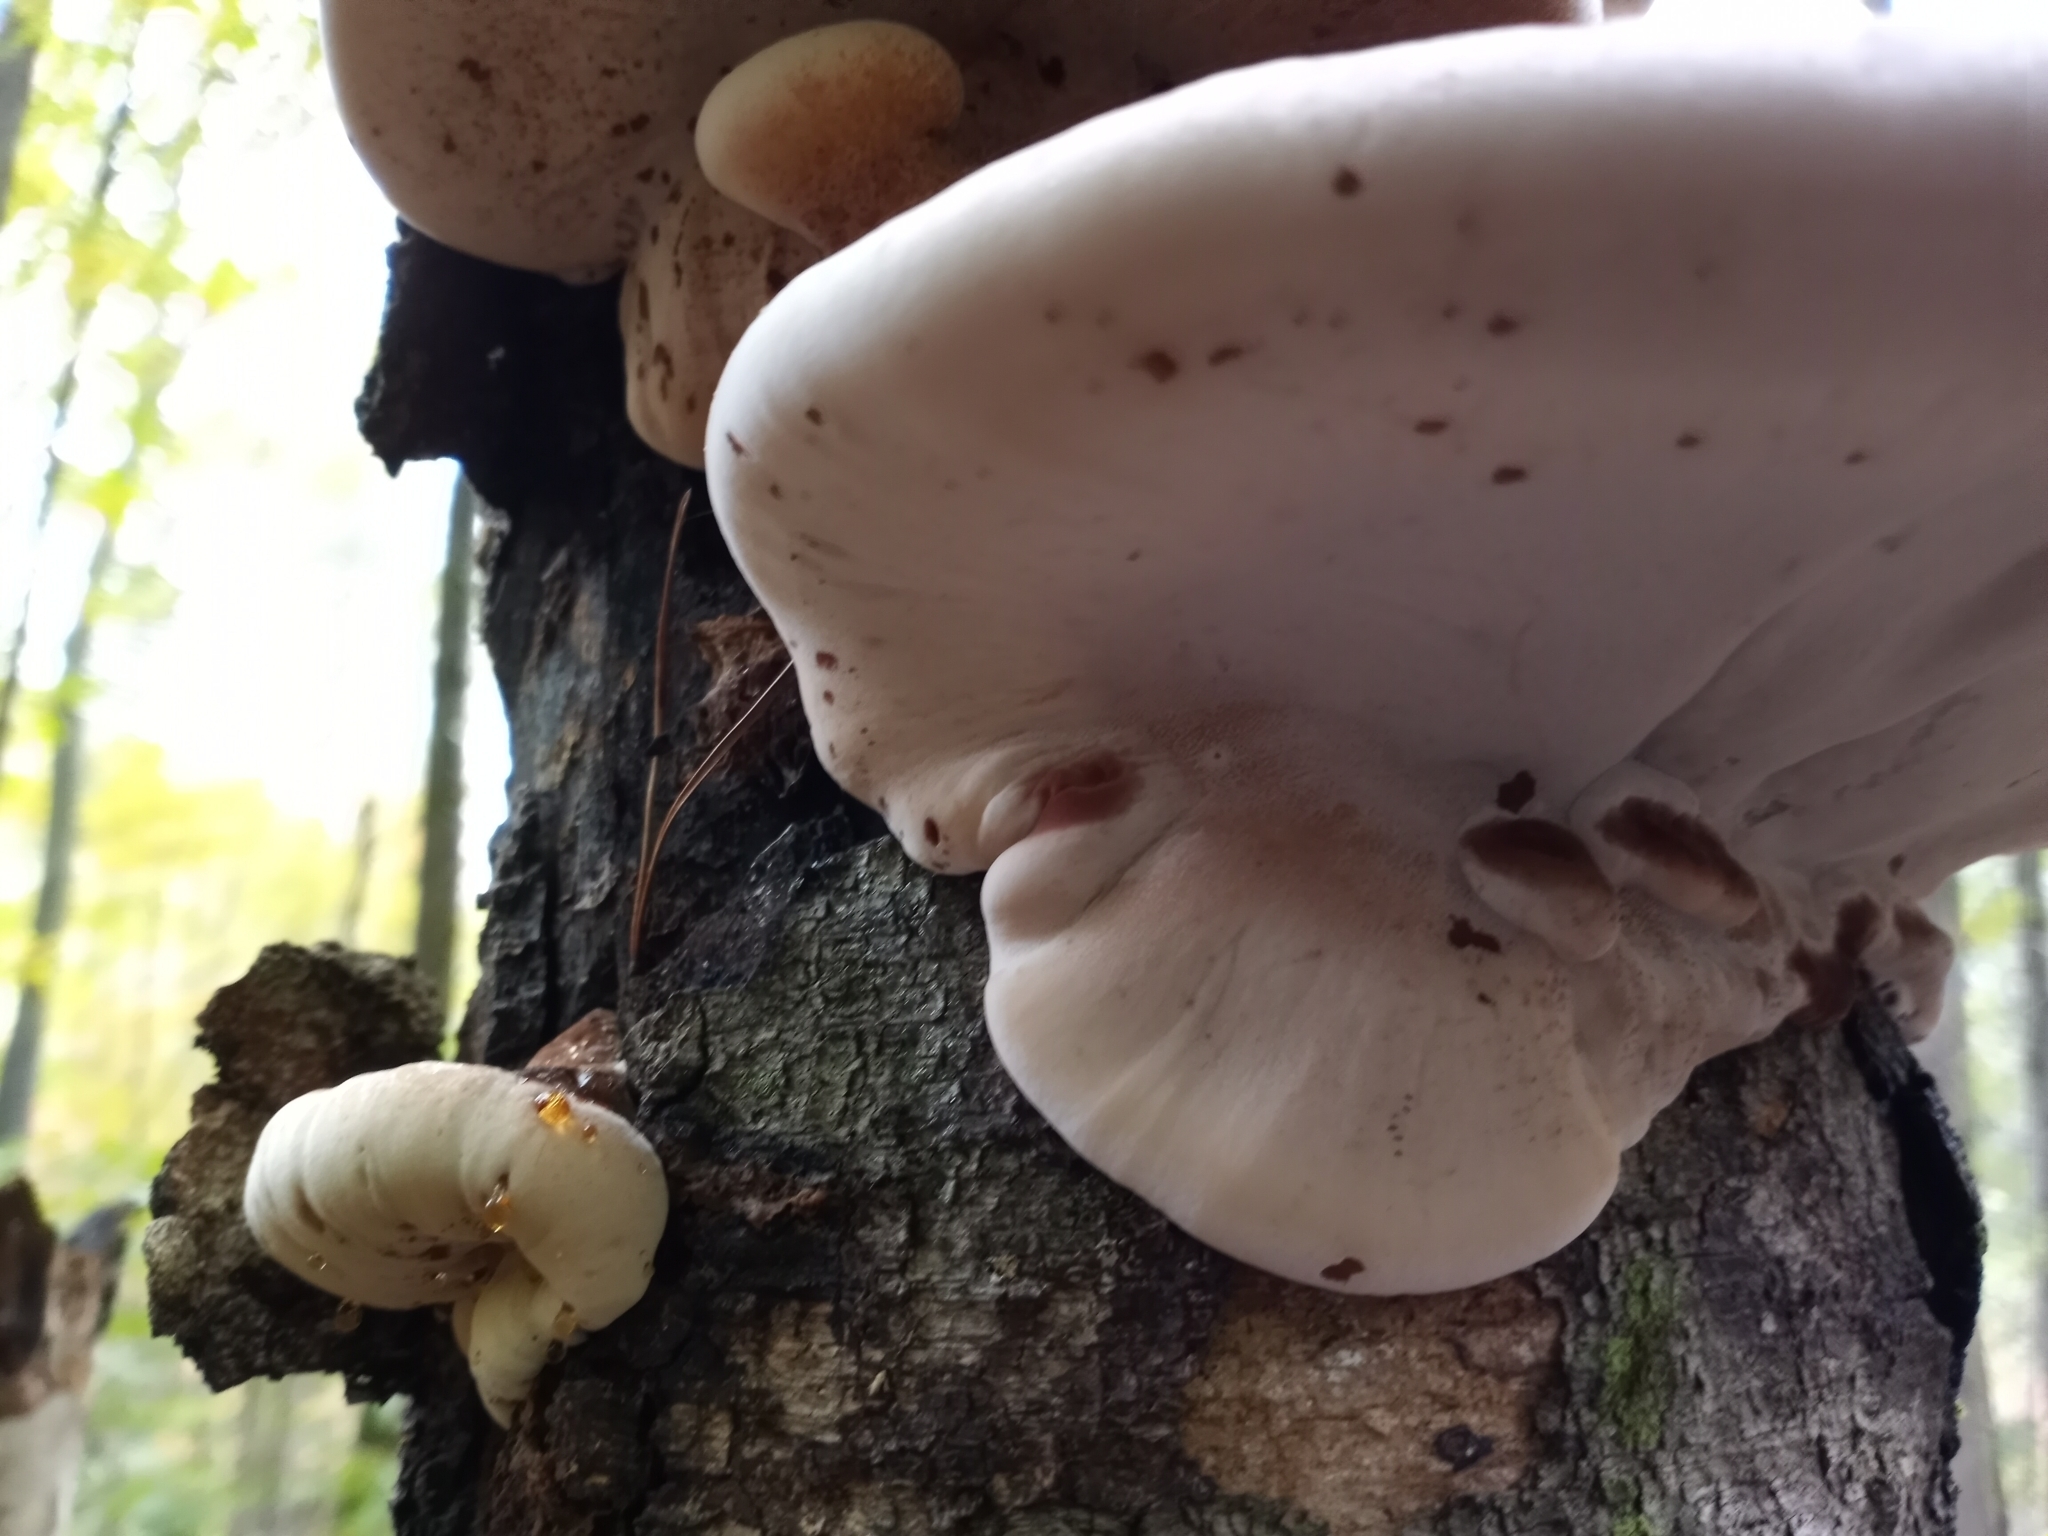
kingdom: Fungi
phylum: Basidiomycota
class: Agaricomycetes
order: Polyporales
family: Ischnodermataceae
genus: Ischnoderma
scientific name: Ischnoderma resinosum
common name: Resinous polypore
